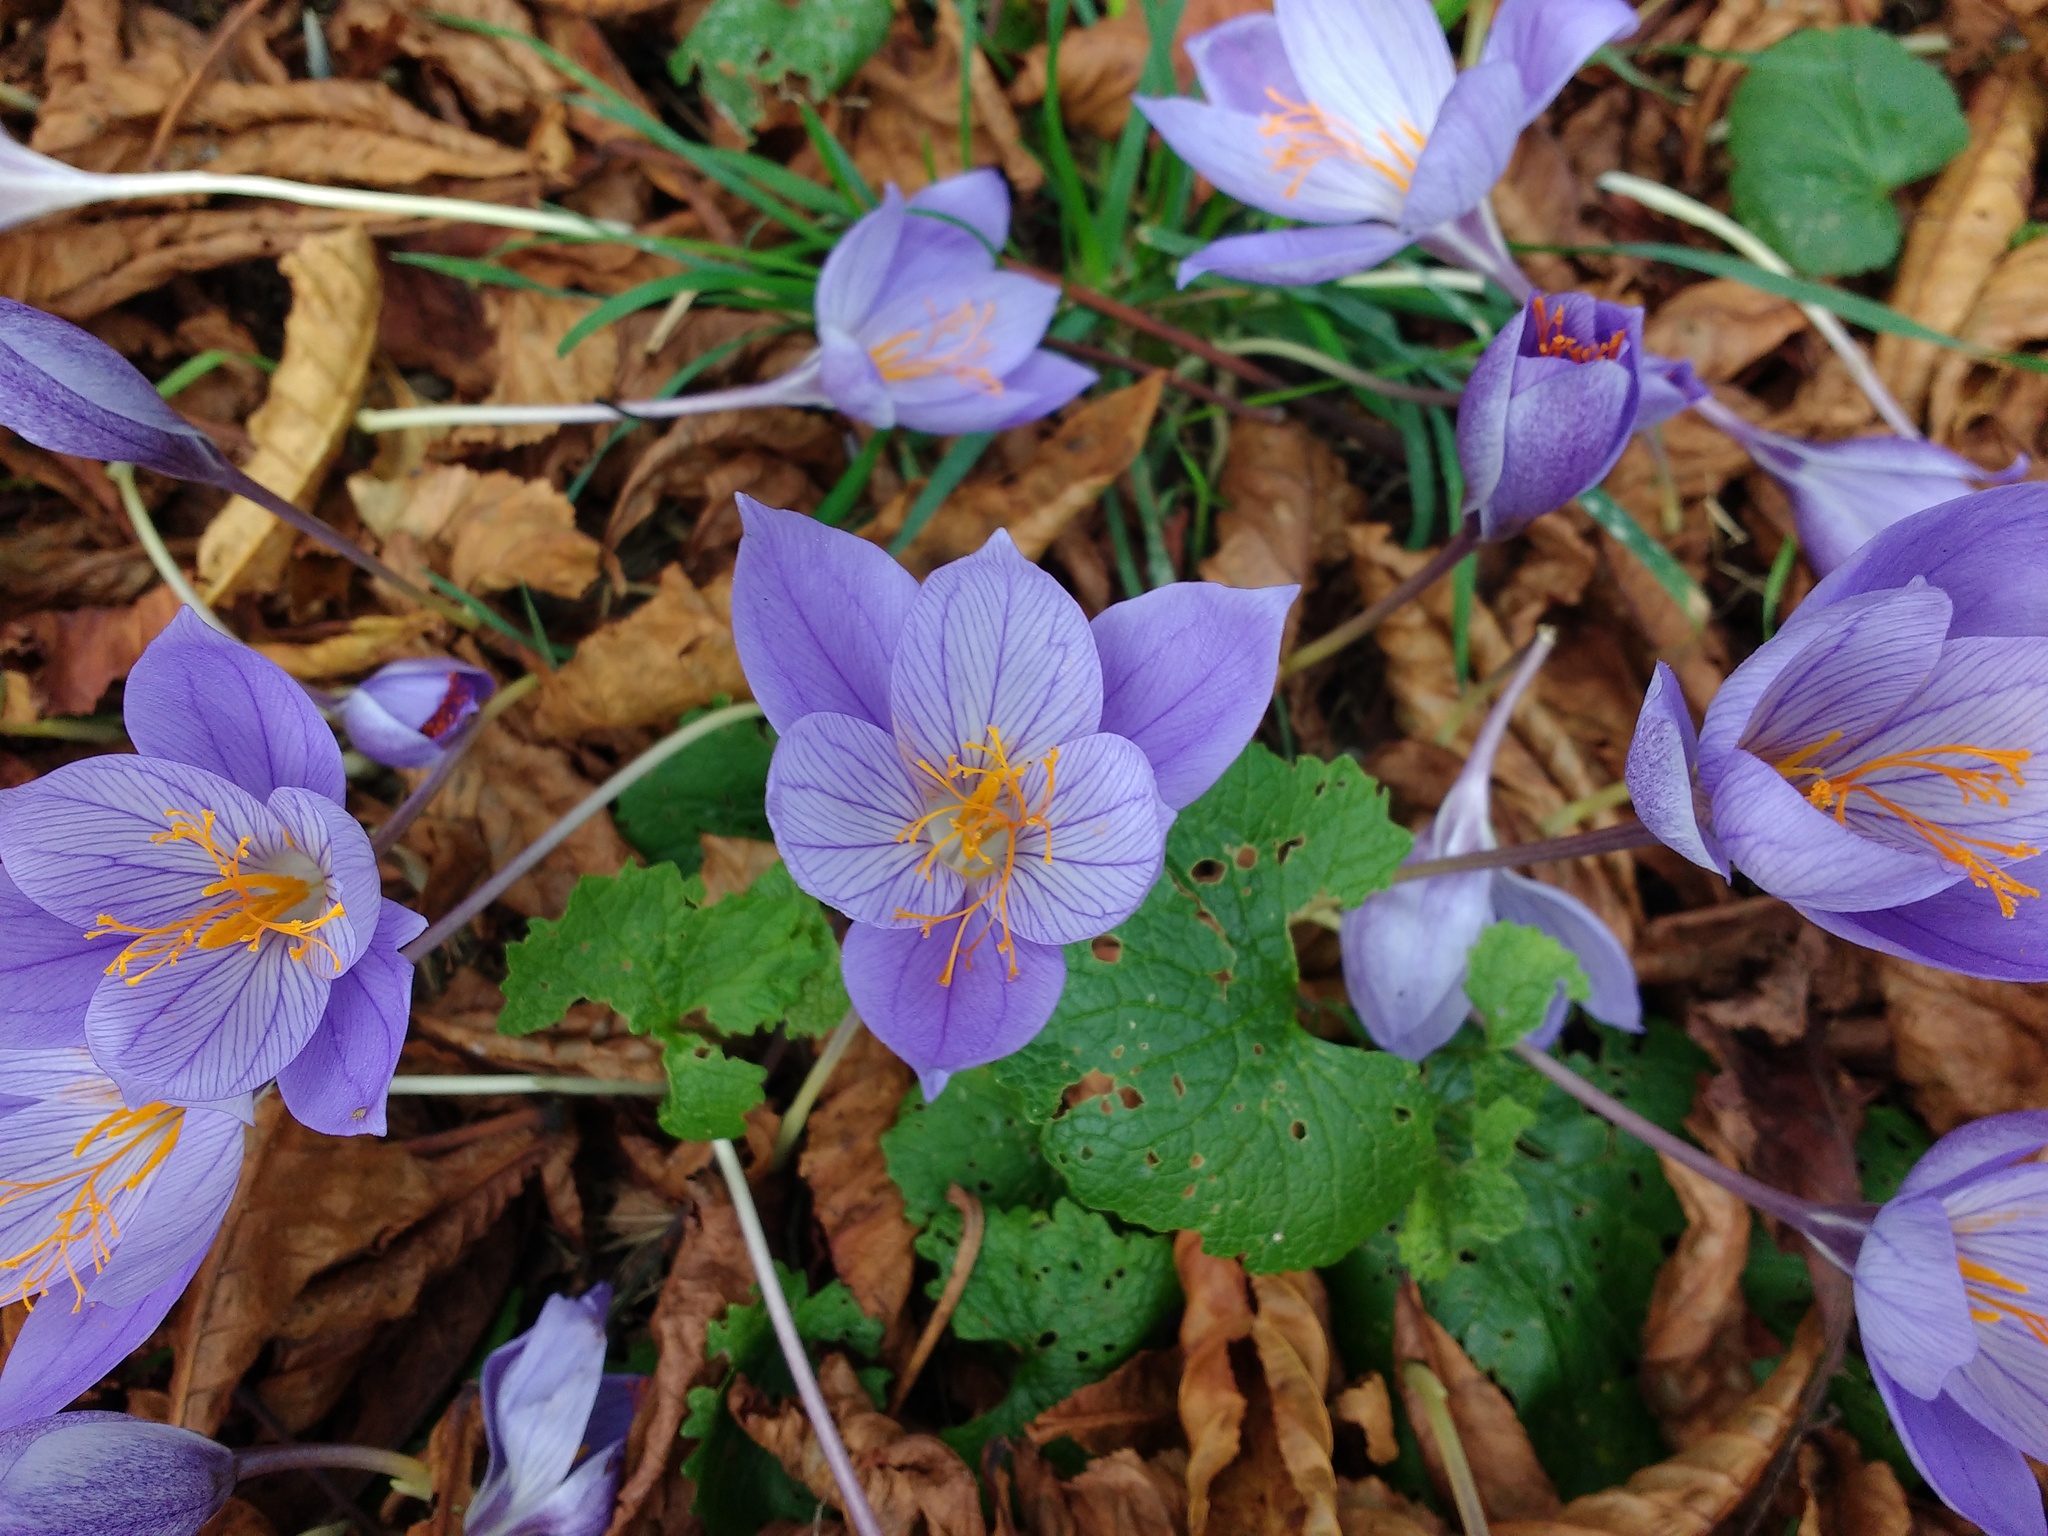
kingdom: Plantae
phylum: Tracheophyta
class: Liliopsida
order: Asparagales
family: Iridaceae
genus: Crocus
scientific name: Crocus speciosus
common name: Bieberstein's crocus
